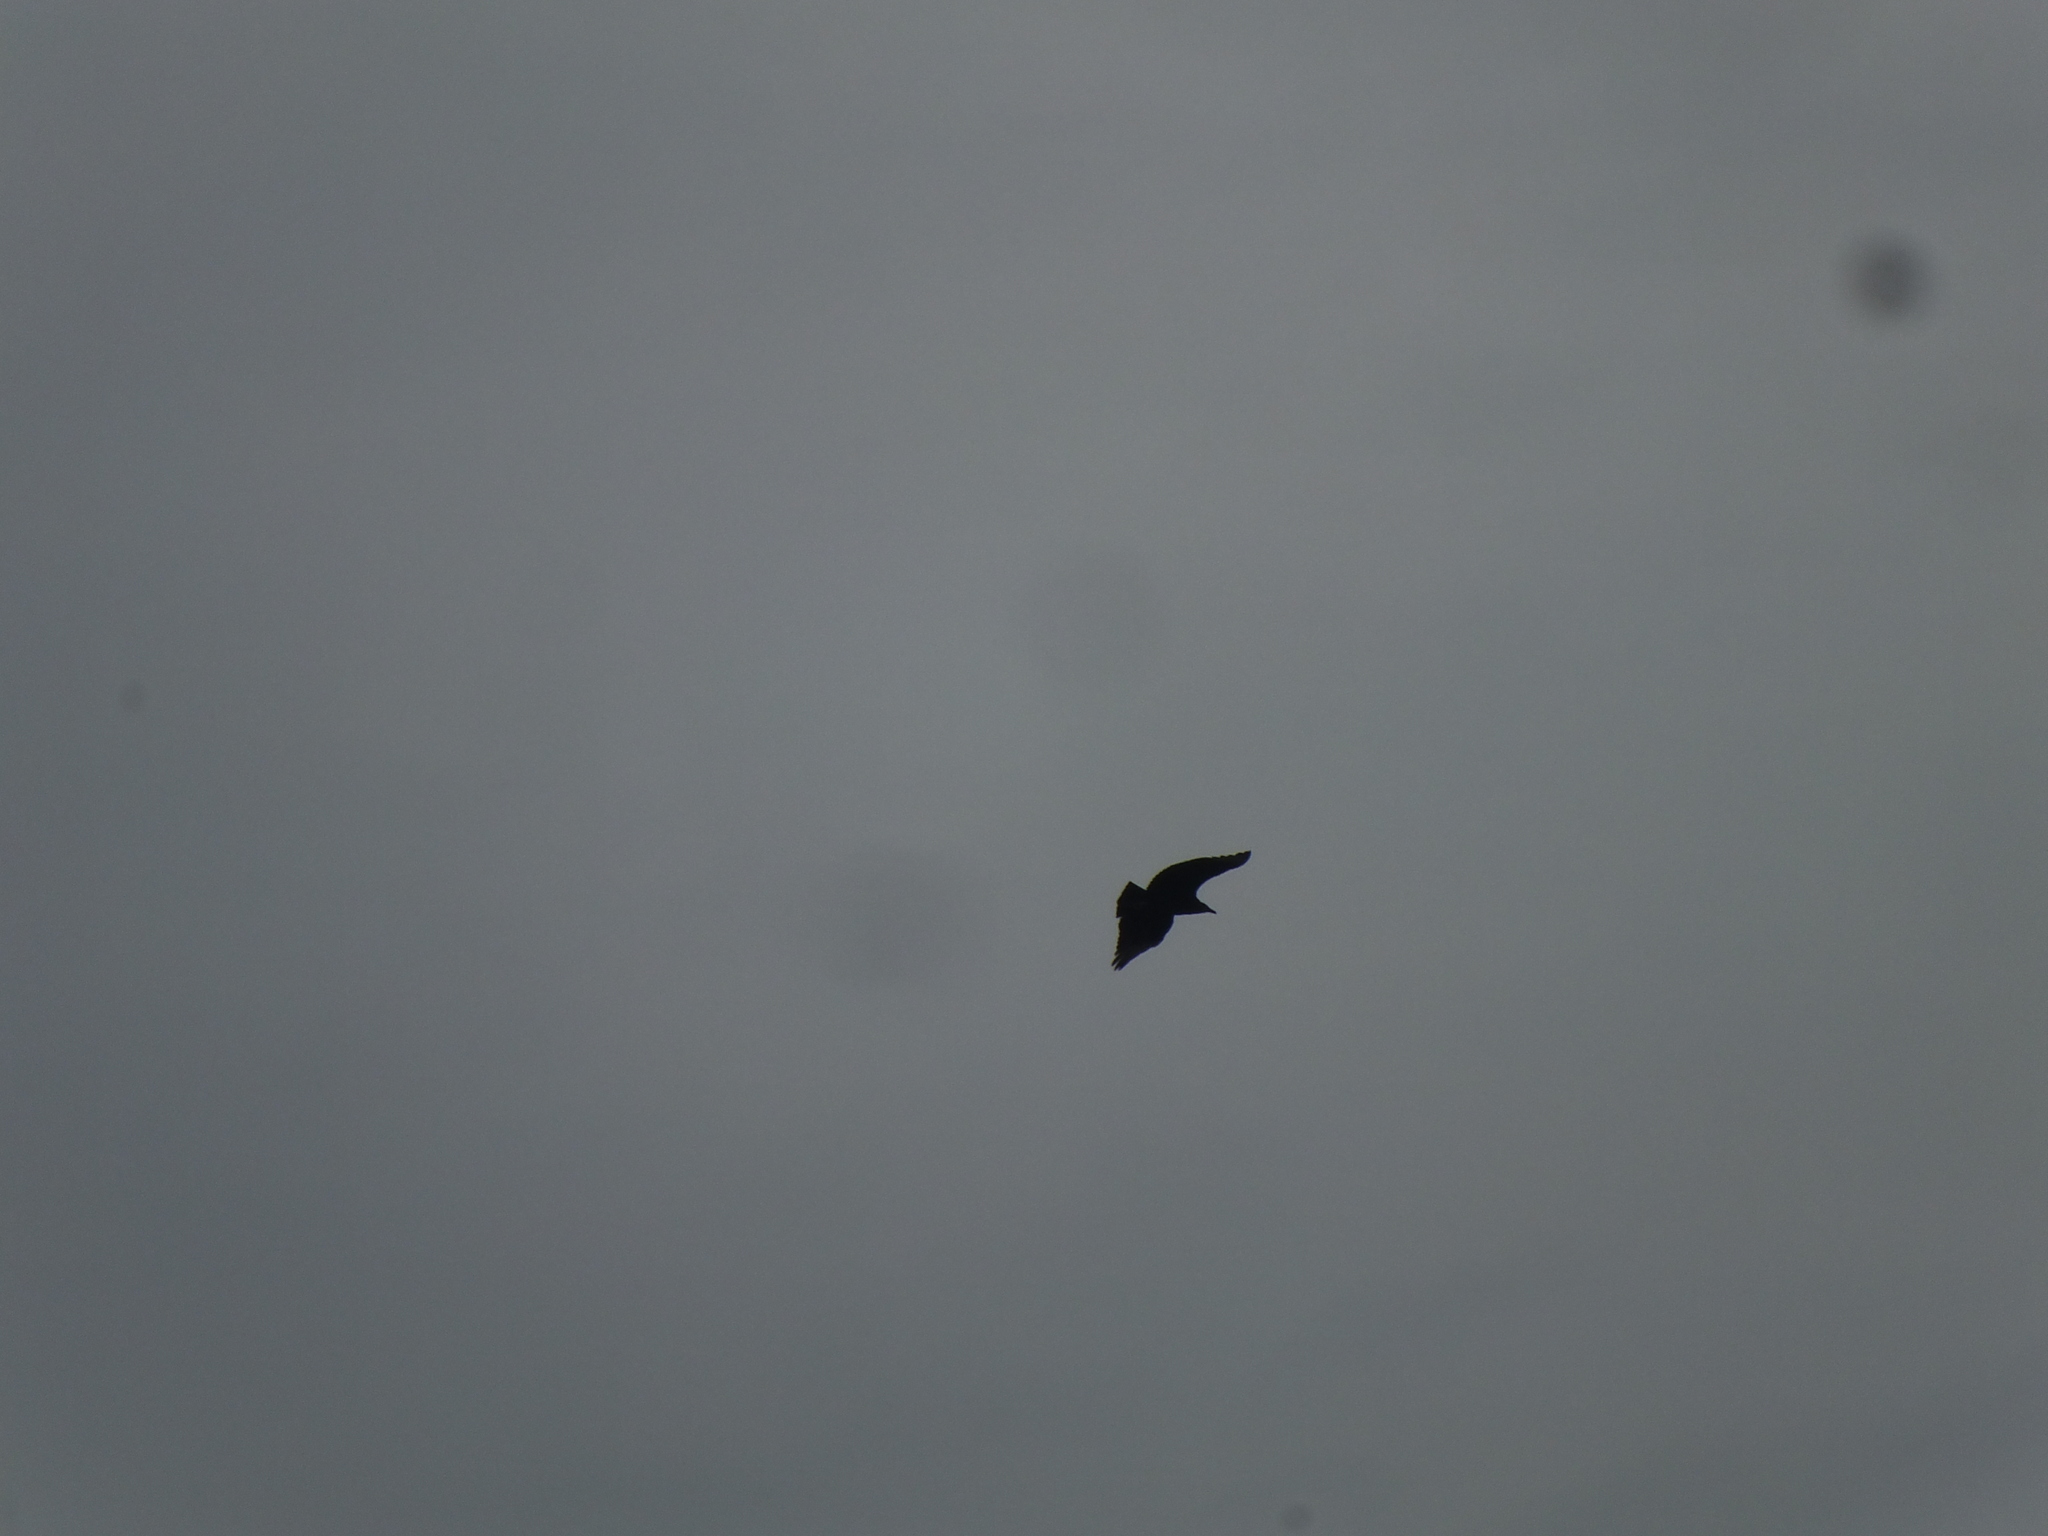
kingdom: Animalia
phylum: Chordata
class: Aves
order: Accipitriformes
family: Cathartidae
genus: Coragyps
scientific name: Coragyps atratus
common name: Black vulture
